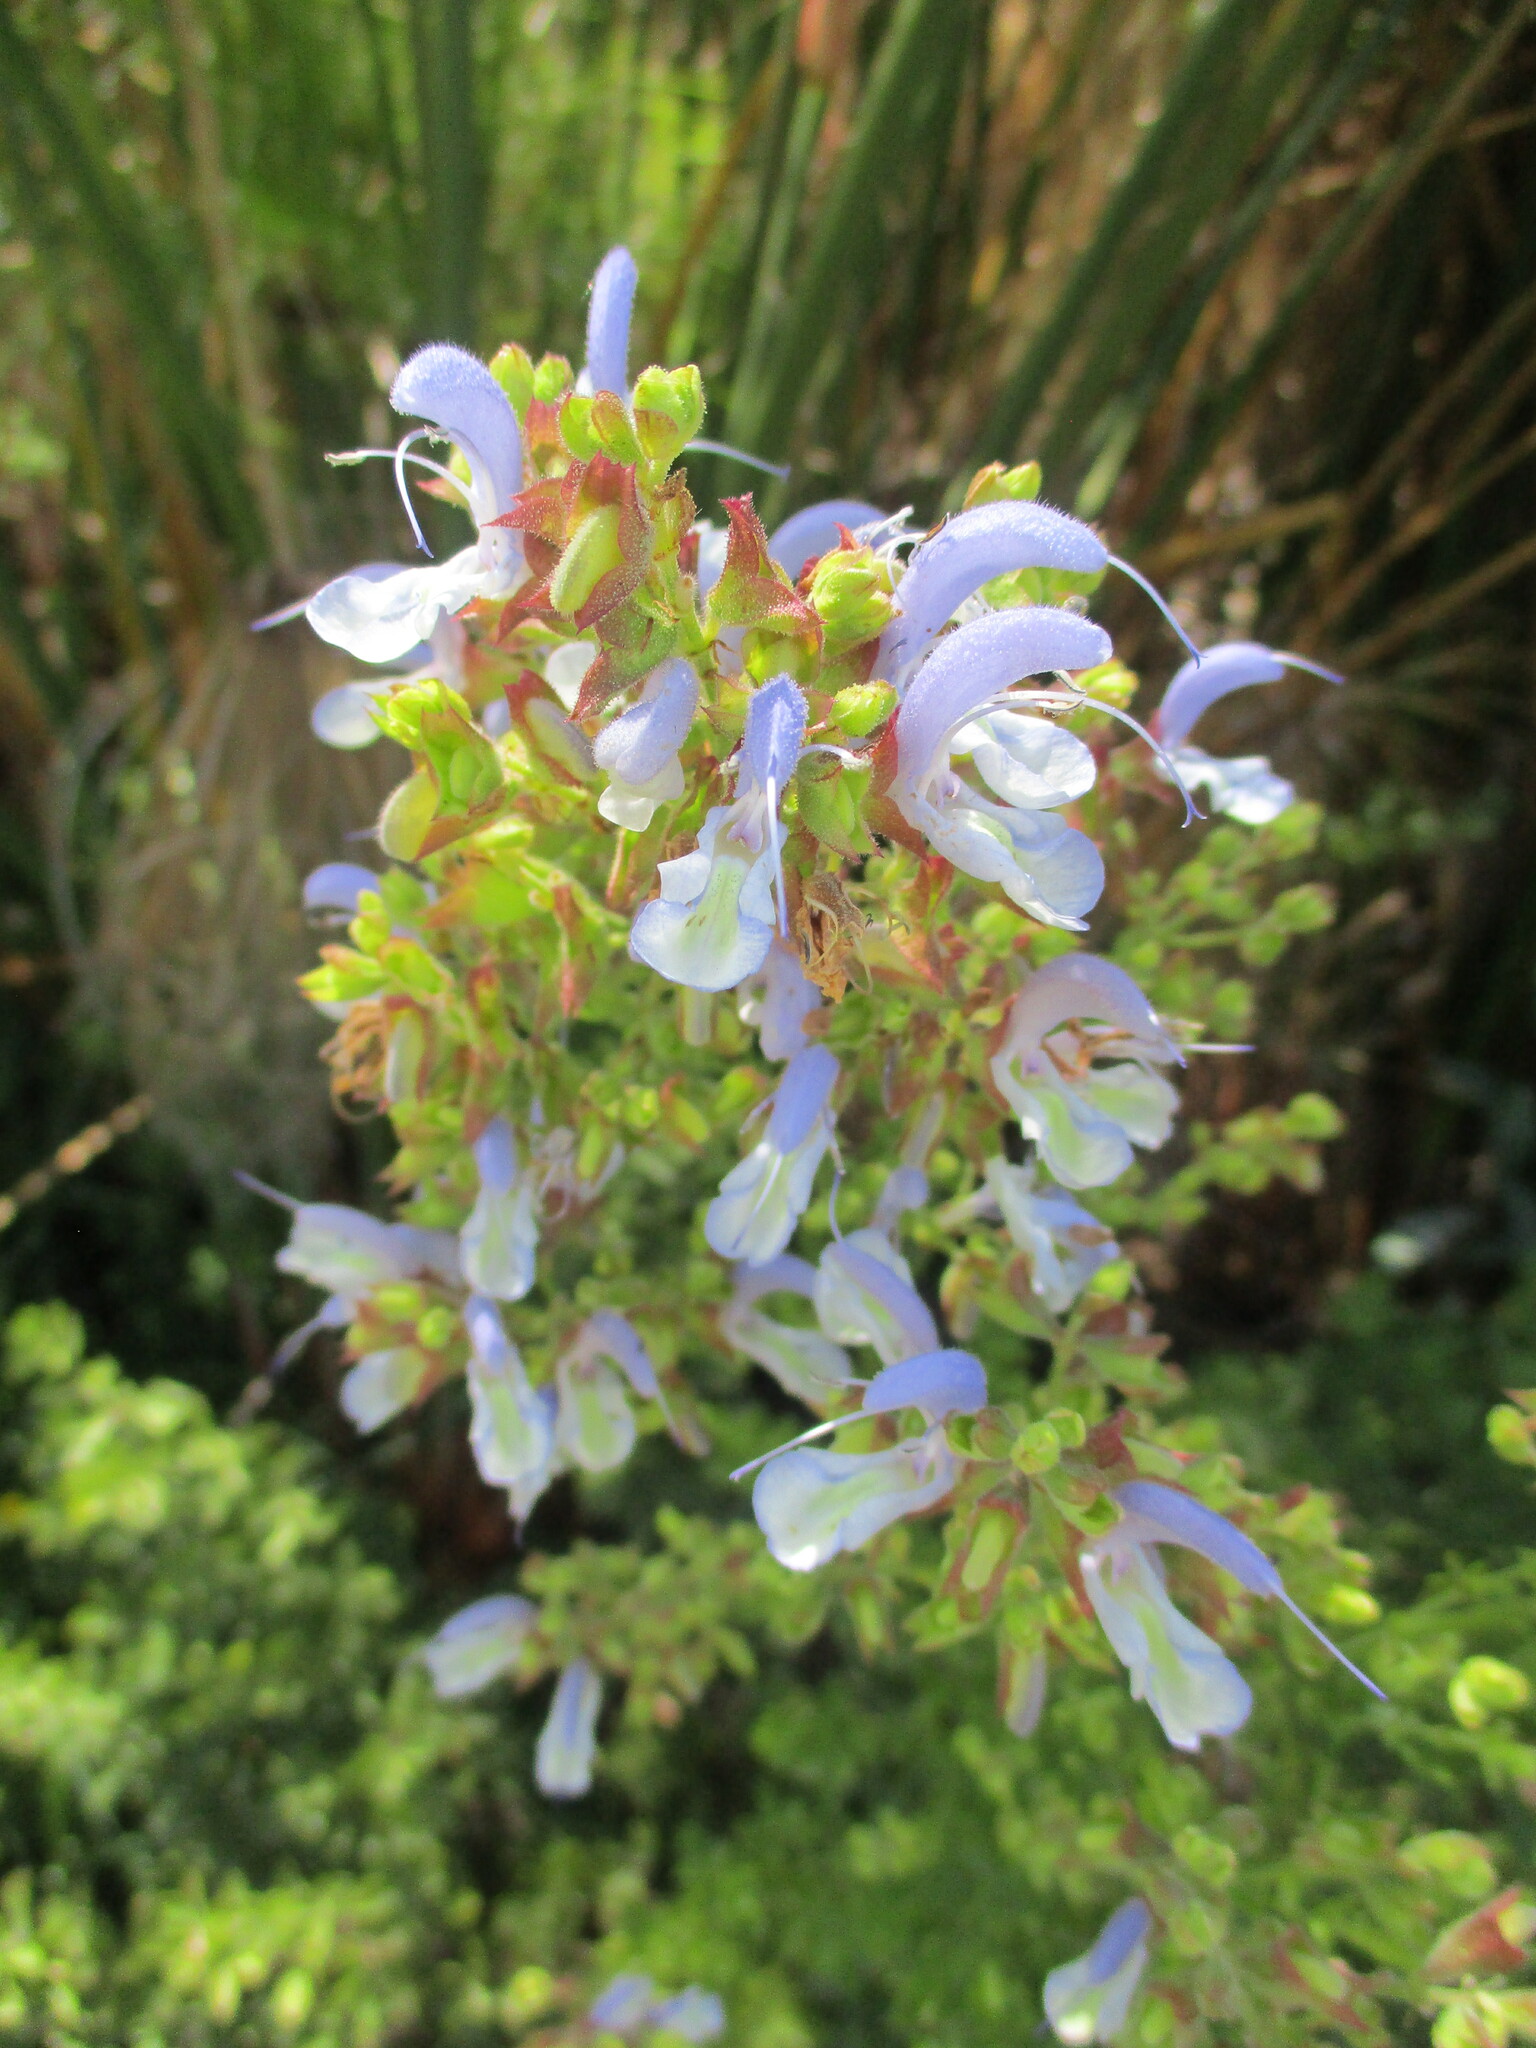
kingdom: Plantae
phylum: Tracheophyta
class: Magnoliopsida
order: Lamiales
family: Lamiaceae
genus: Salvia
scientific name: Salvia chamelaeagnea
